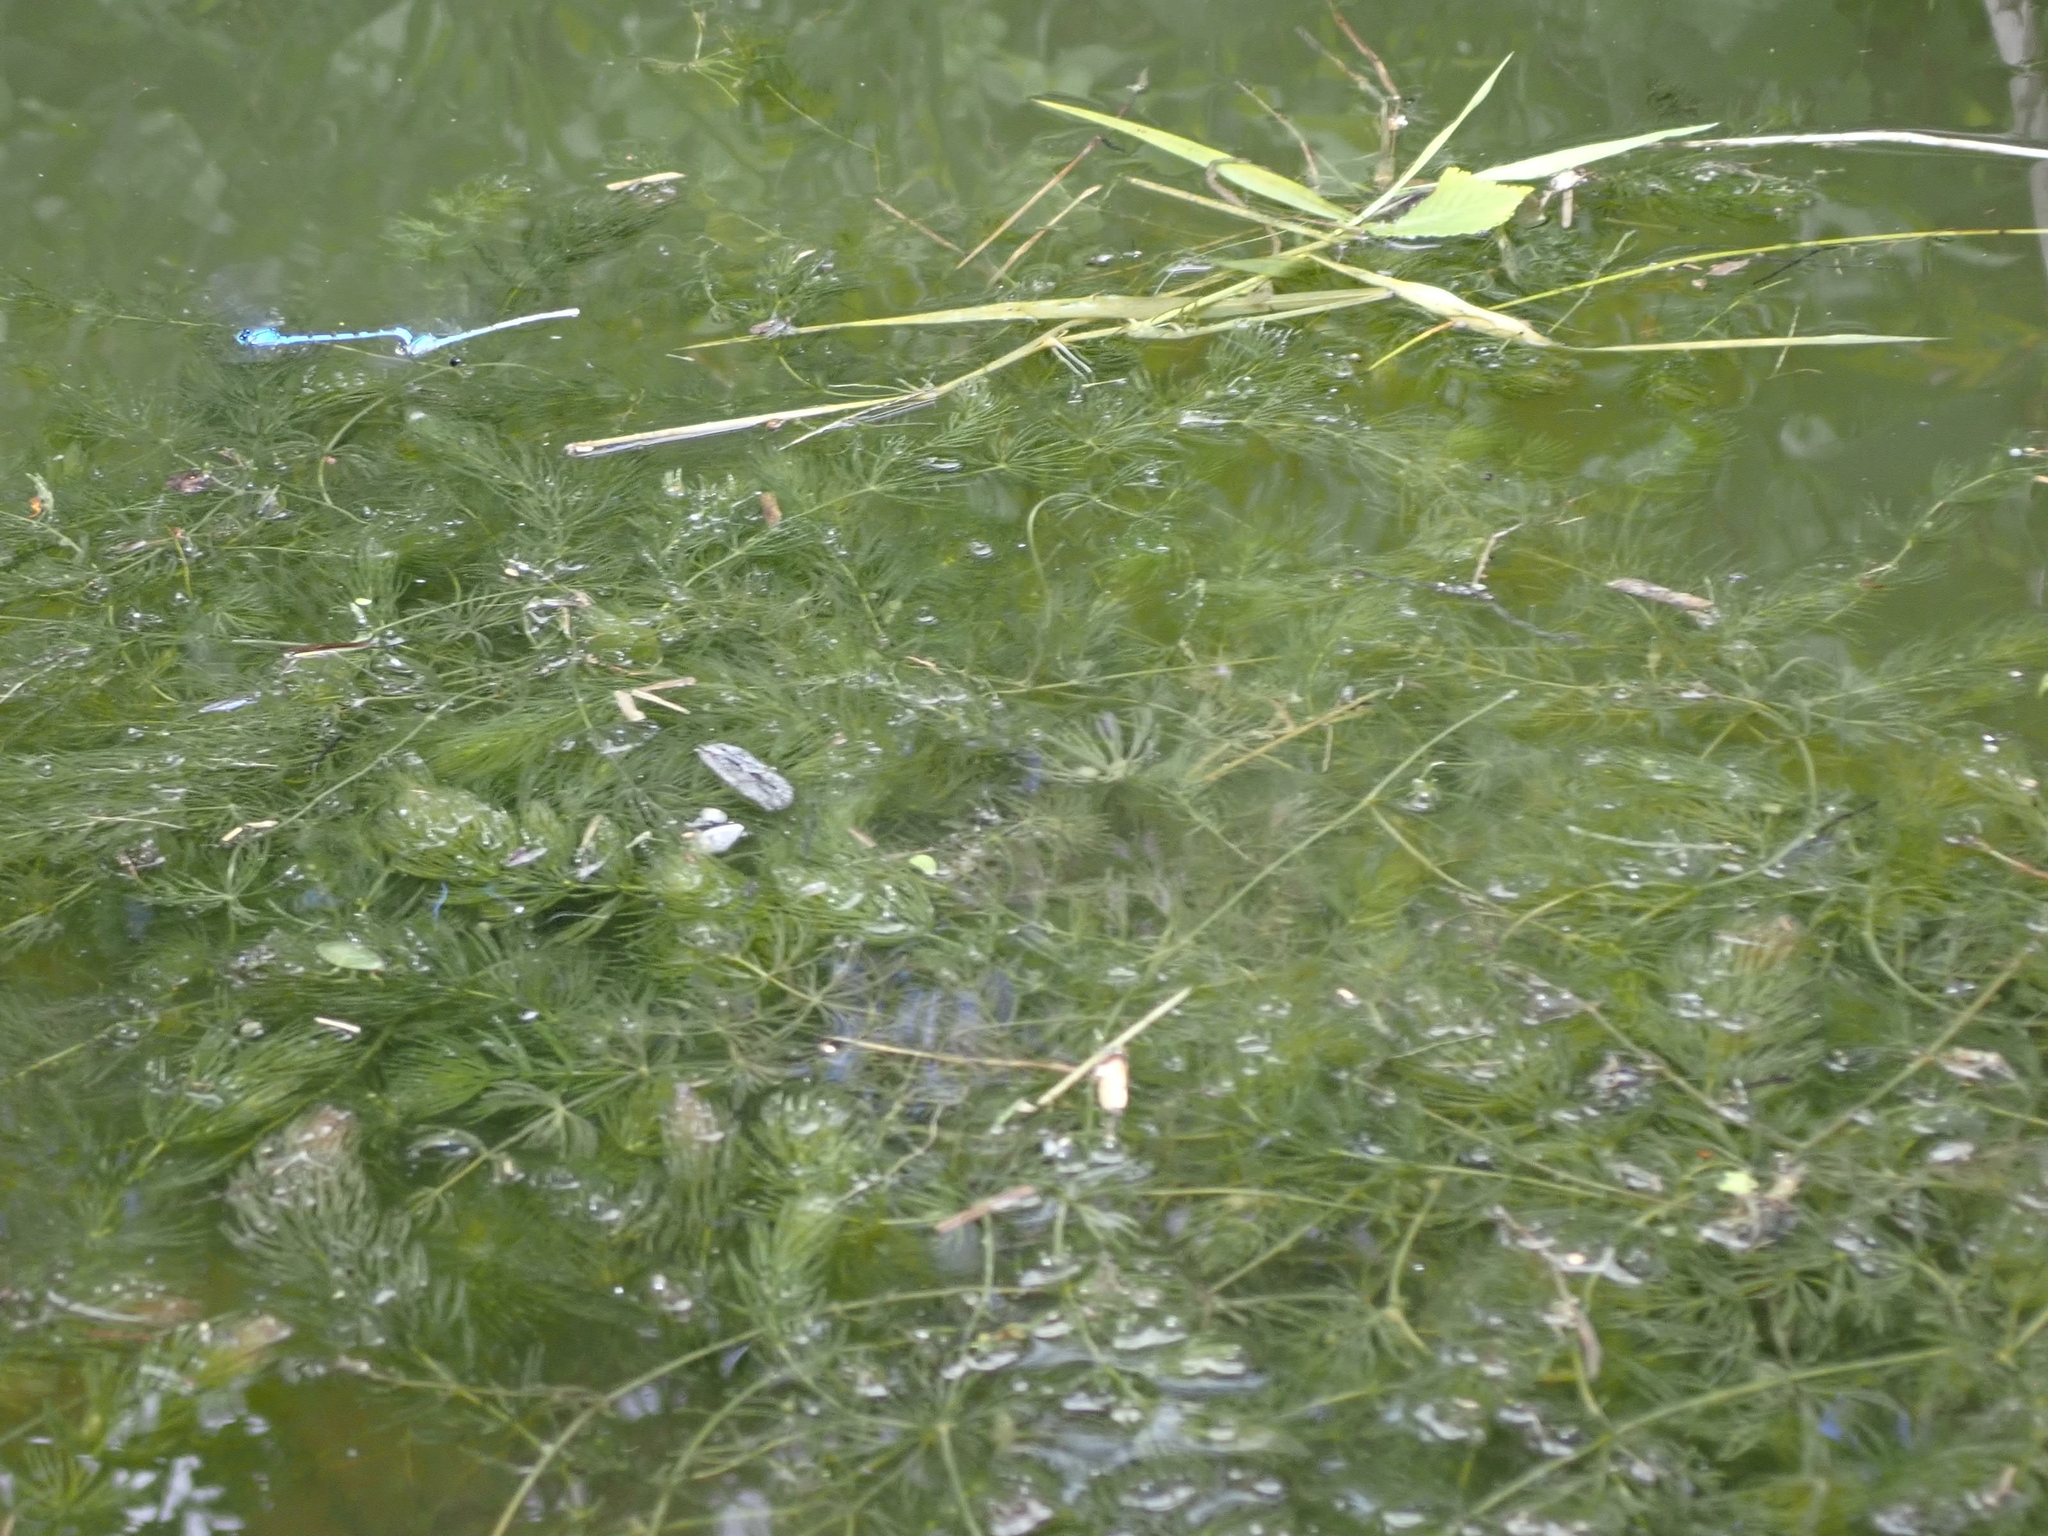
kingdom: Plantae
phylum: Tracheophyta
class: Magnoliopsida
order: Ceratophyllales
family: Ceratophyllaceae
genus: Ceratophyllum
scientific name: Ceratophyllum demersum
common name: Rigid hornwort
